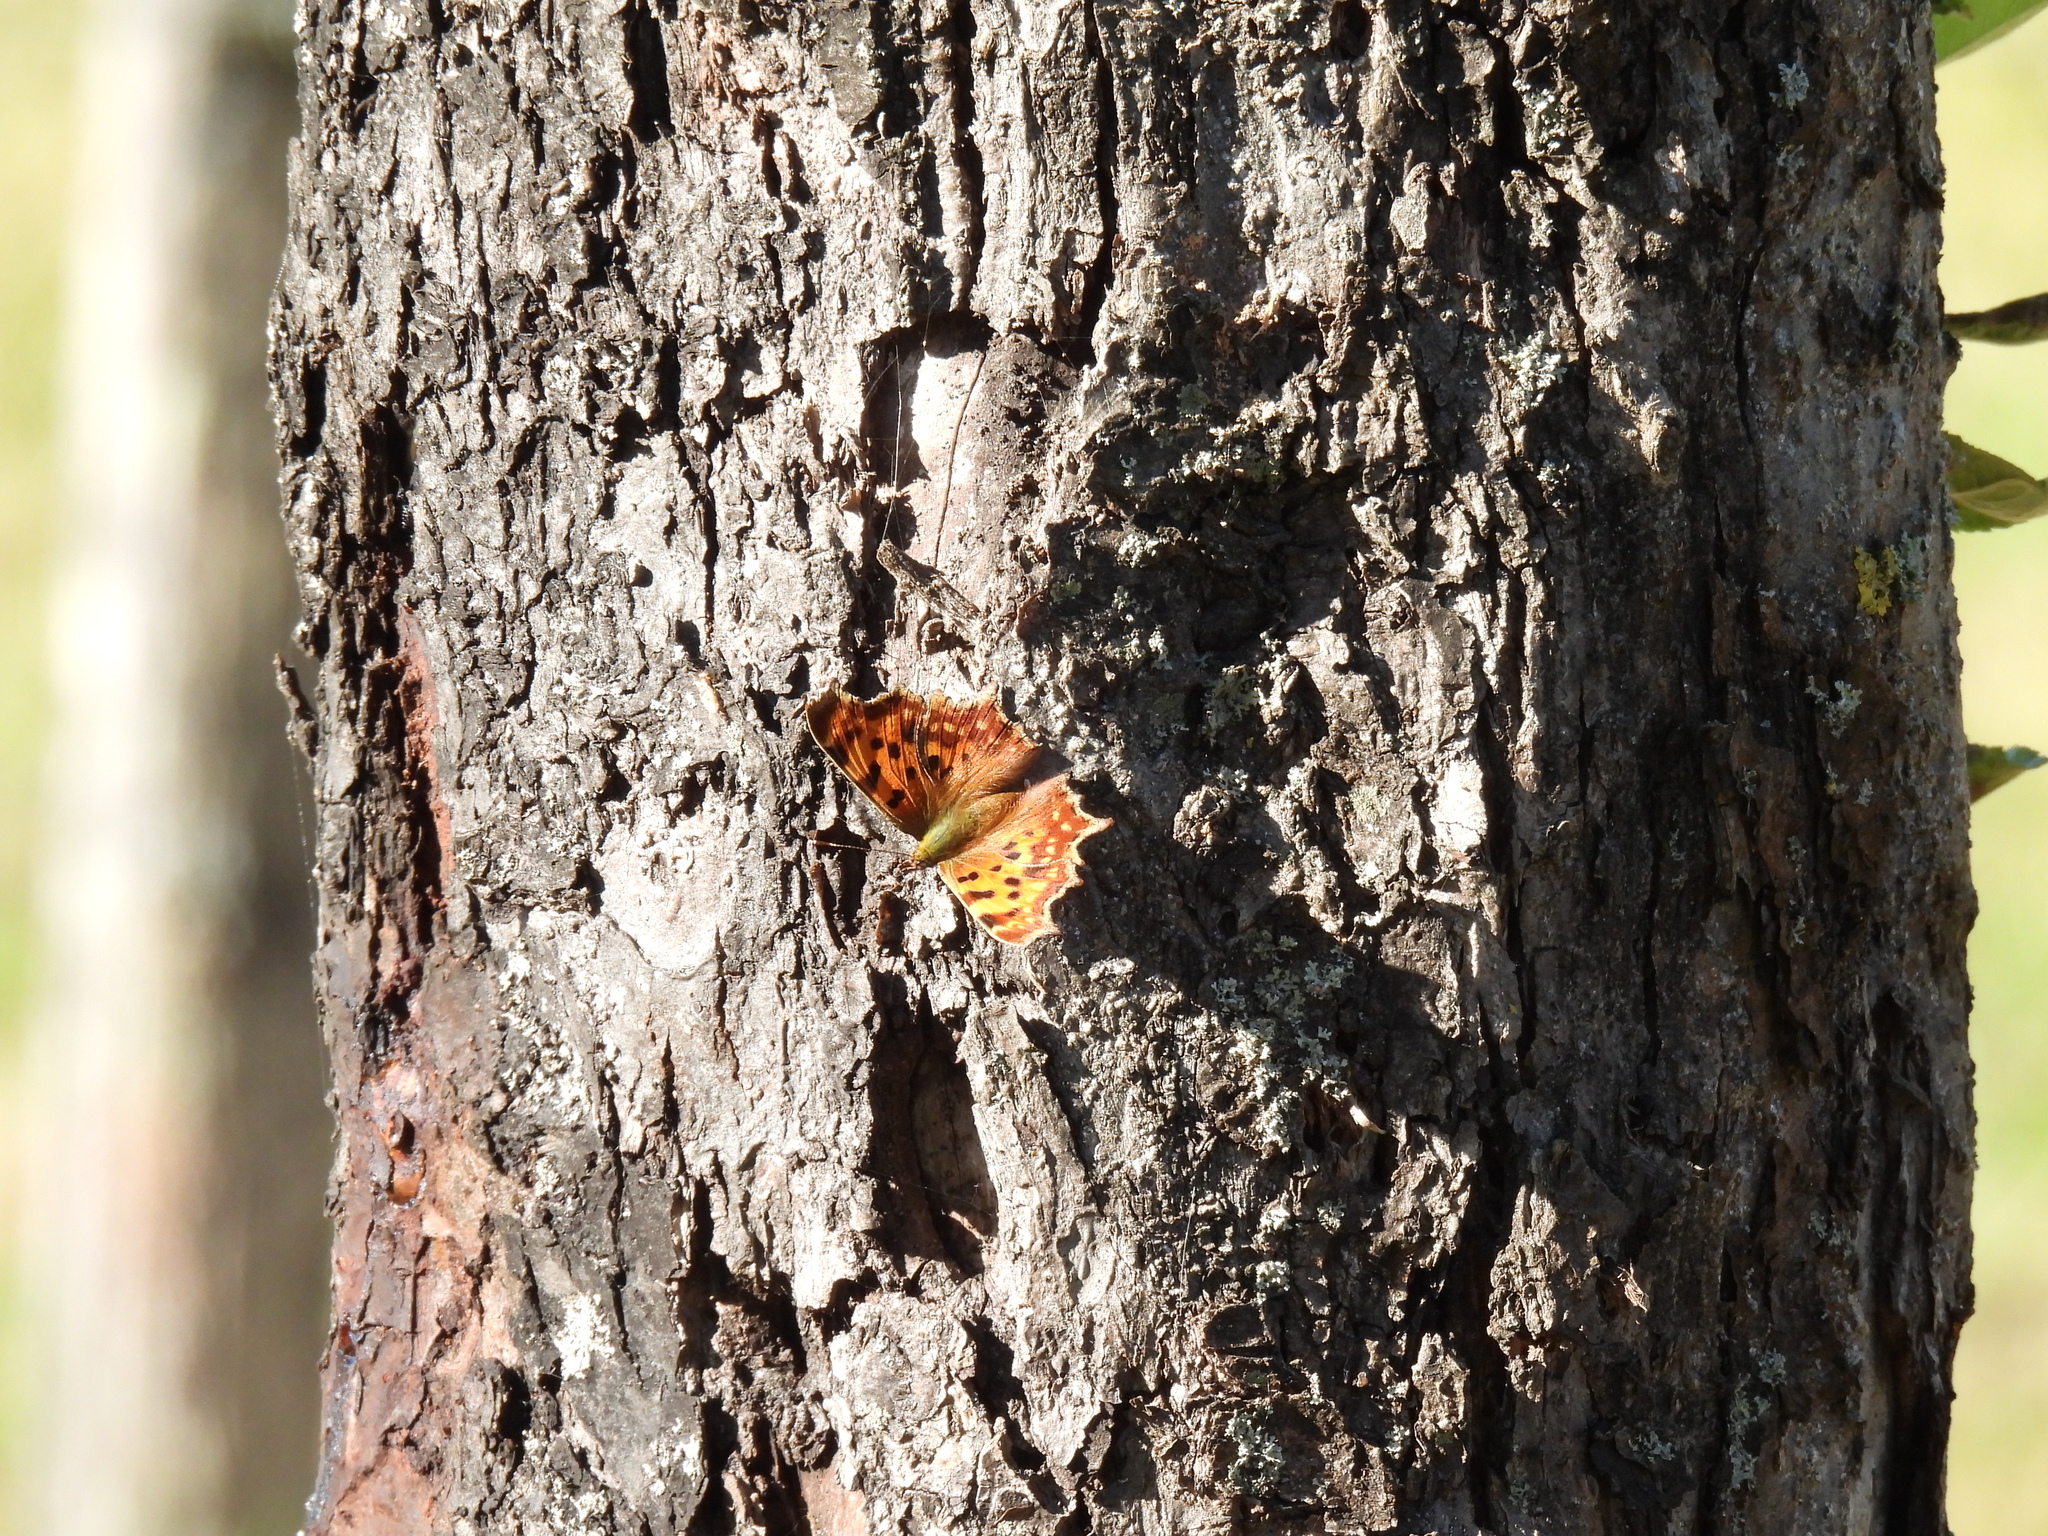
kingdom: Animalia
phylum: Arthropoda
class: Insecta
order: Lepidoptera
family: Nymphalidae
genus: Polygonia
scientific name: Polygonia c-album
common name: Comma
